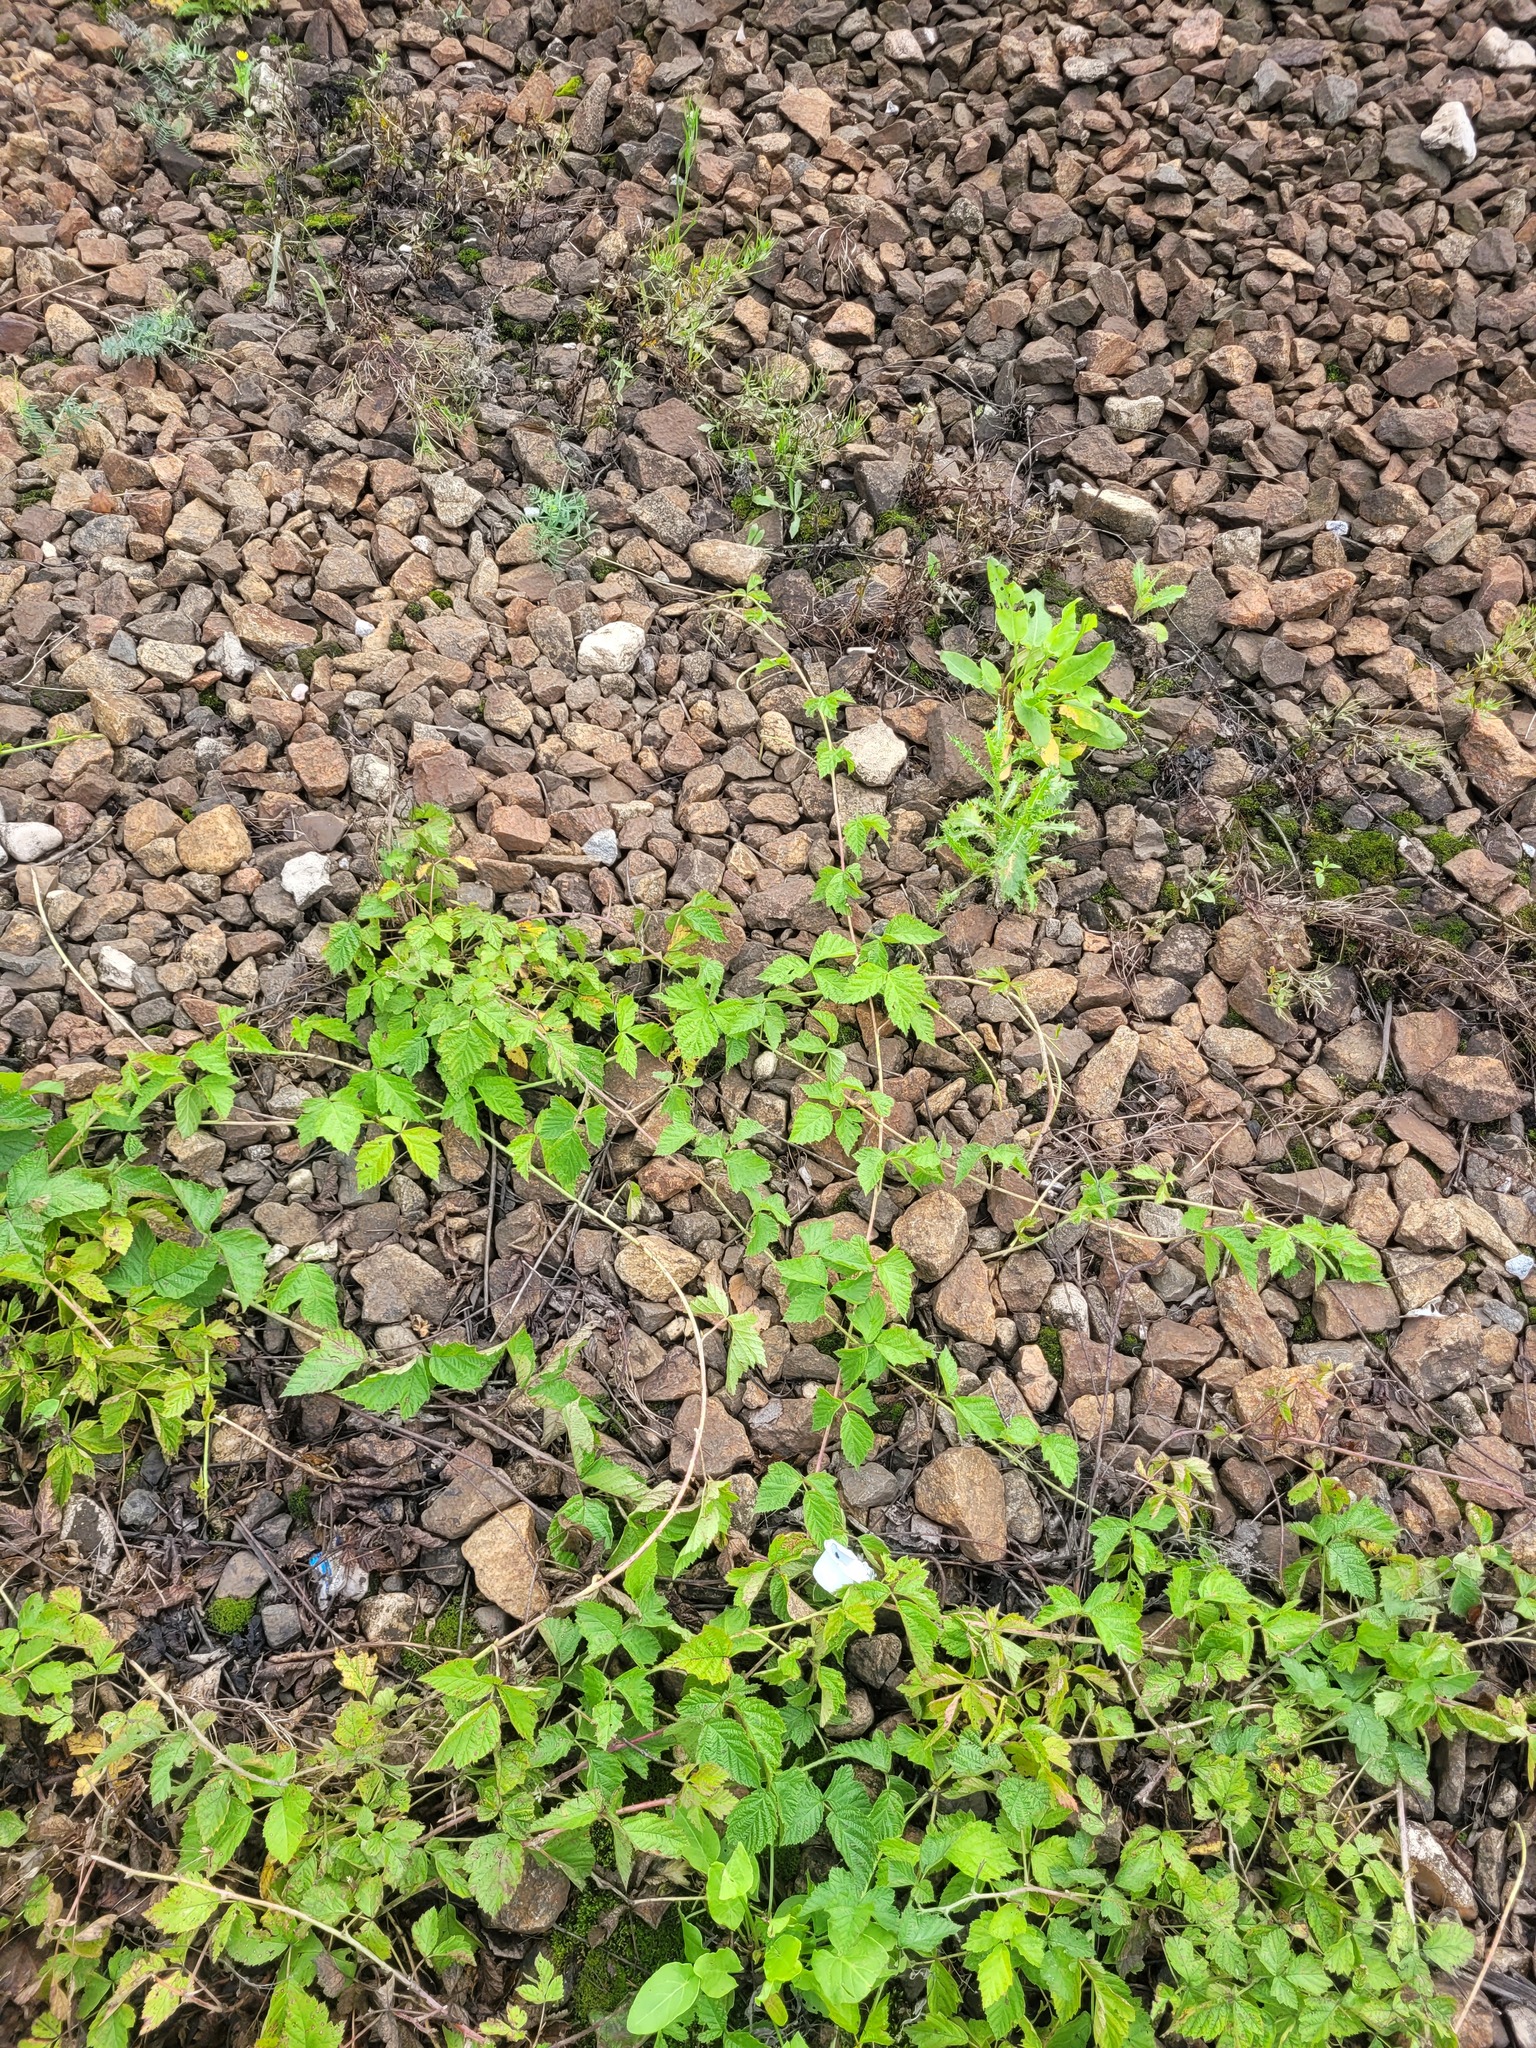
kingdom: Plantae
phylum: Tracheophyta
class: Magnoliopsida
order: Rosales
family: Rosaceae
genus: Rubus
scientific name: Rubus caesius
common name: Dewberry
